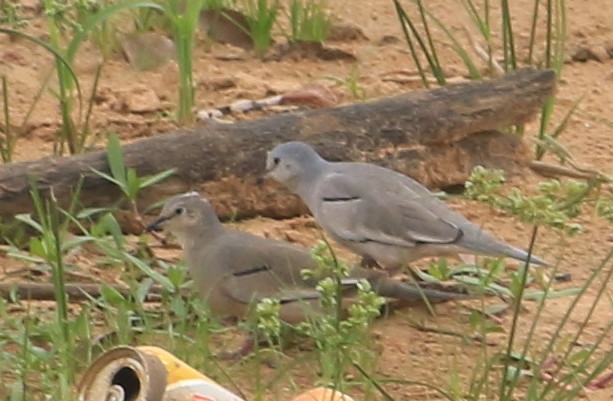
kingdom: Animalia
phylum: Chordata
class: Aves
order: Columbiformes
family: Columbidae
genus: Columbina
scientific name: Columbina picui
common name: Picui ground dove
